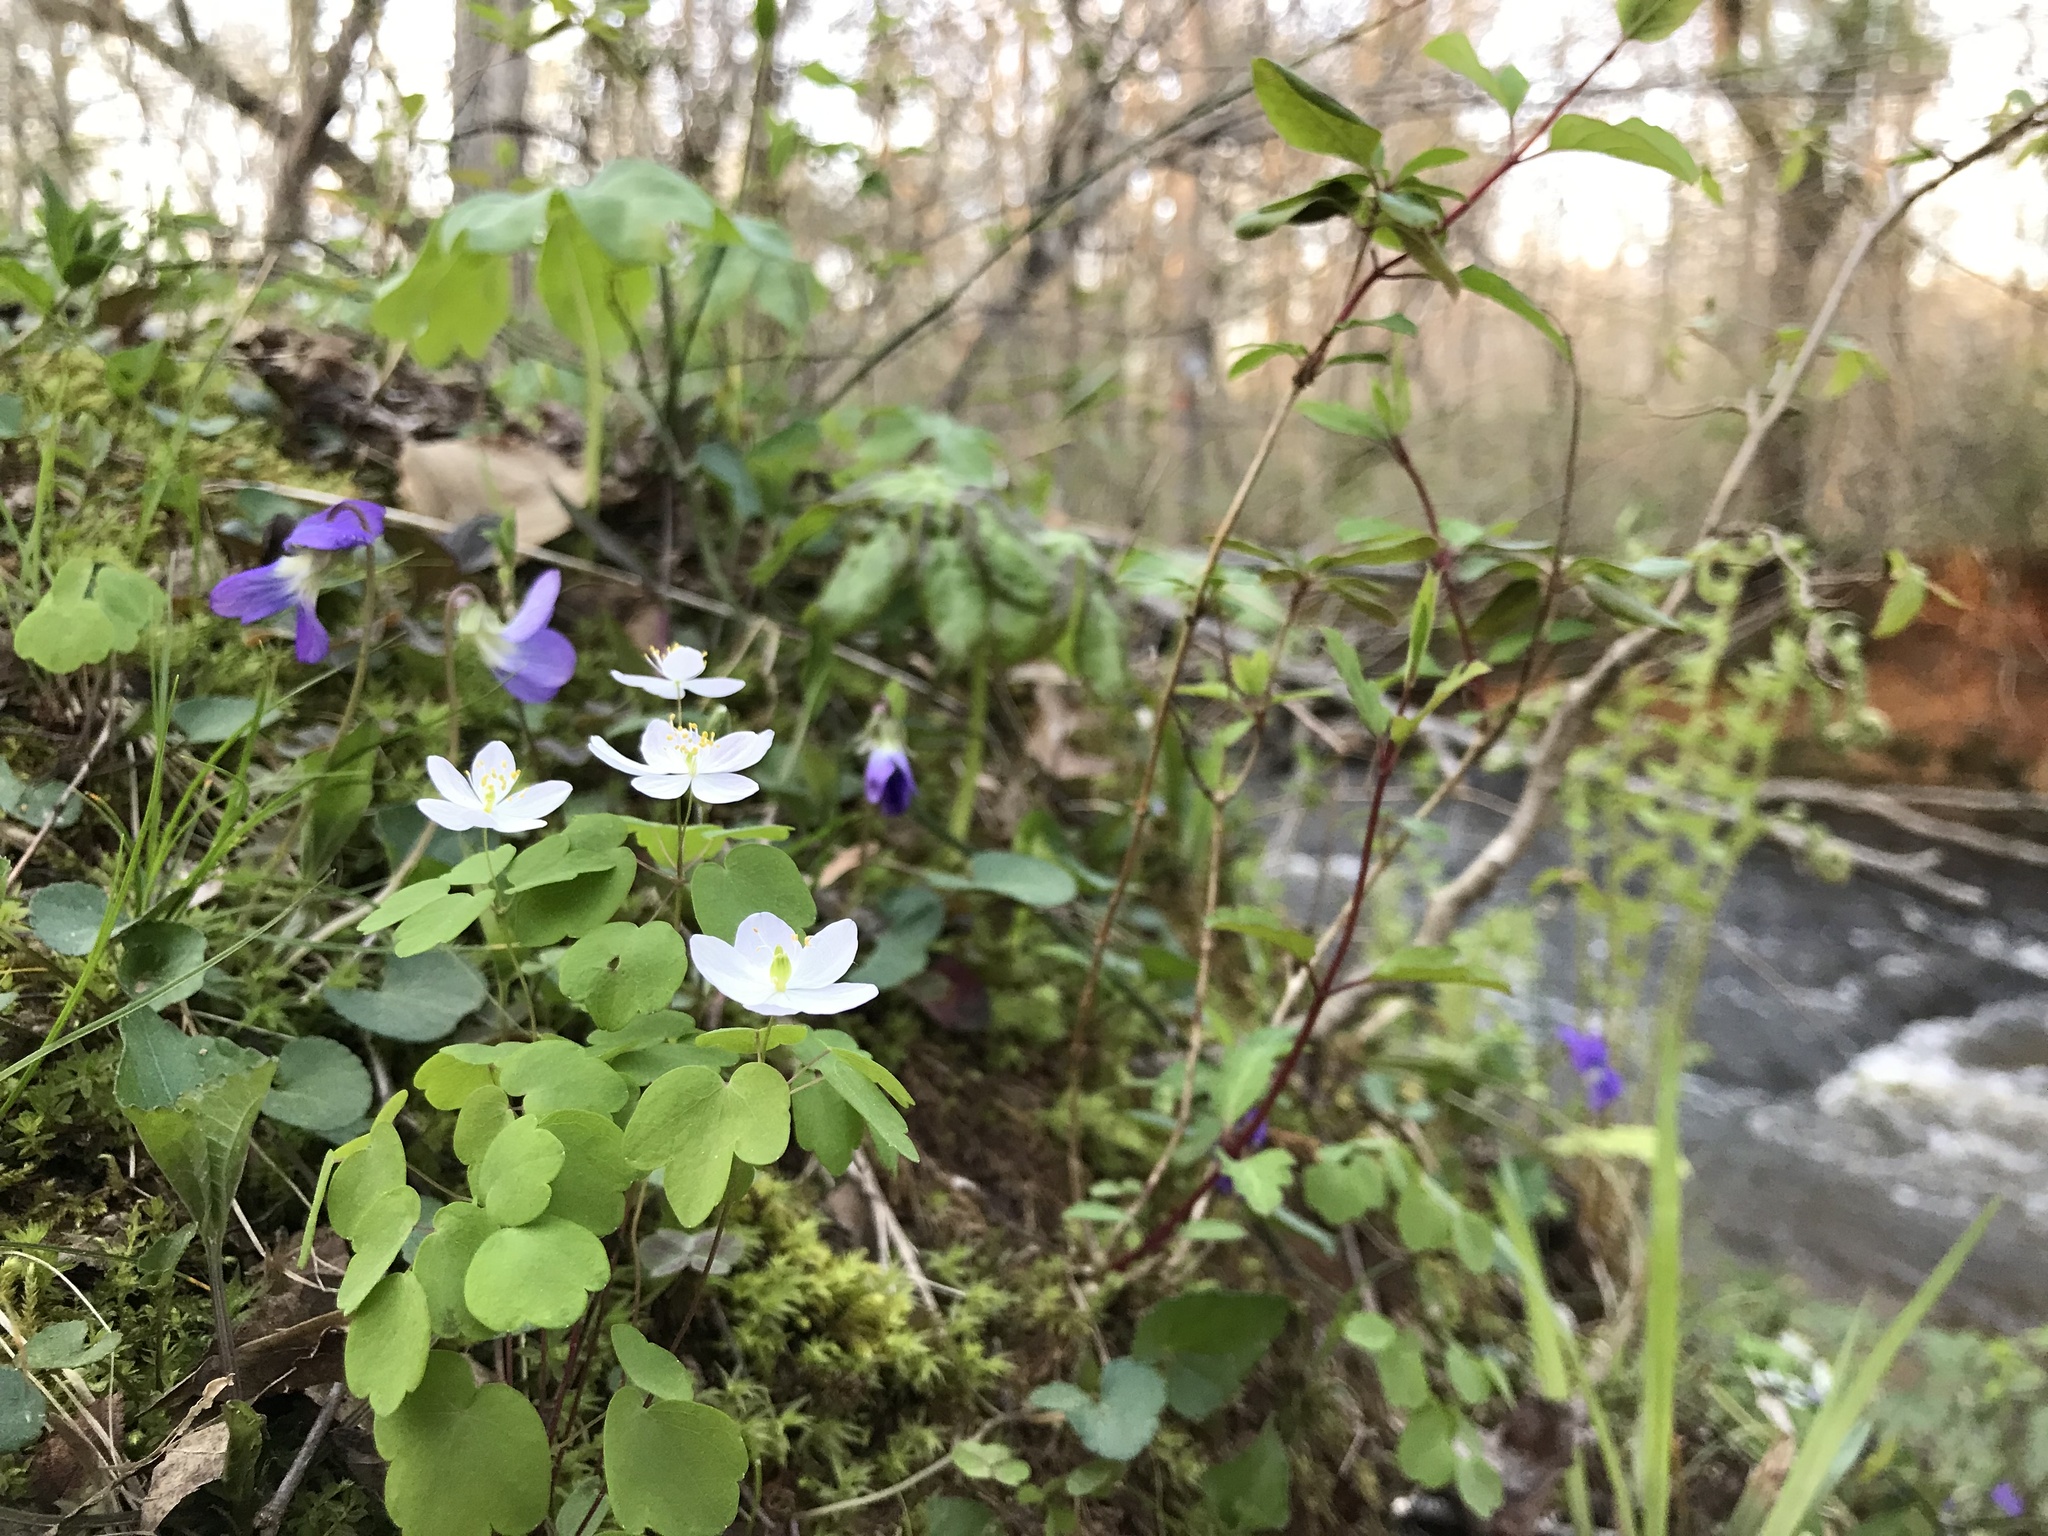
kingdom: Plantae
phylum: Tracheophyta
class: Magnoliopsida
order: Ranunculales
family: Ranunculaceae
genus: Thalictrum
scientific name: Thalictrum thalictroides
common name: Rue-anemone
